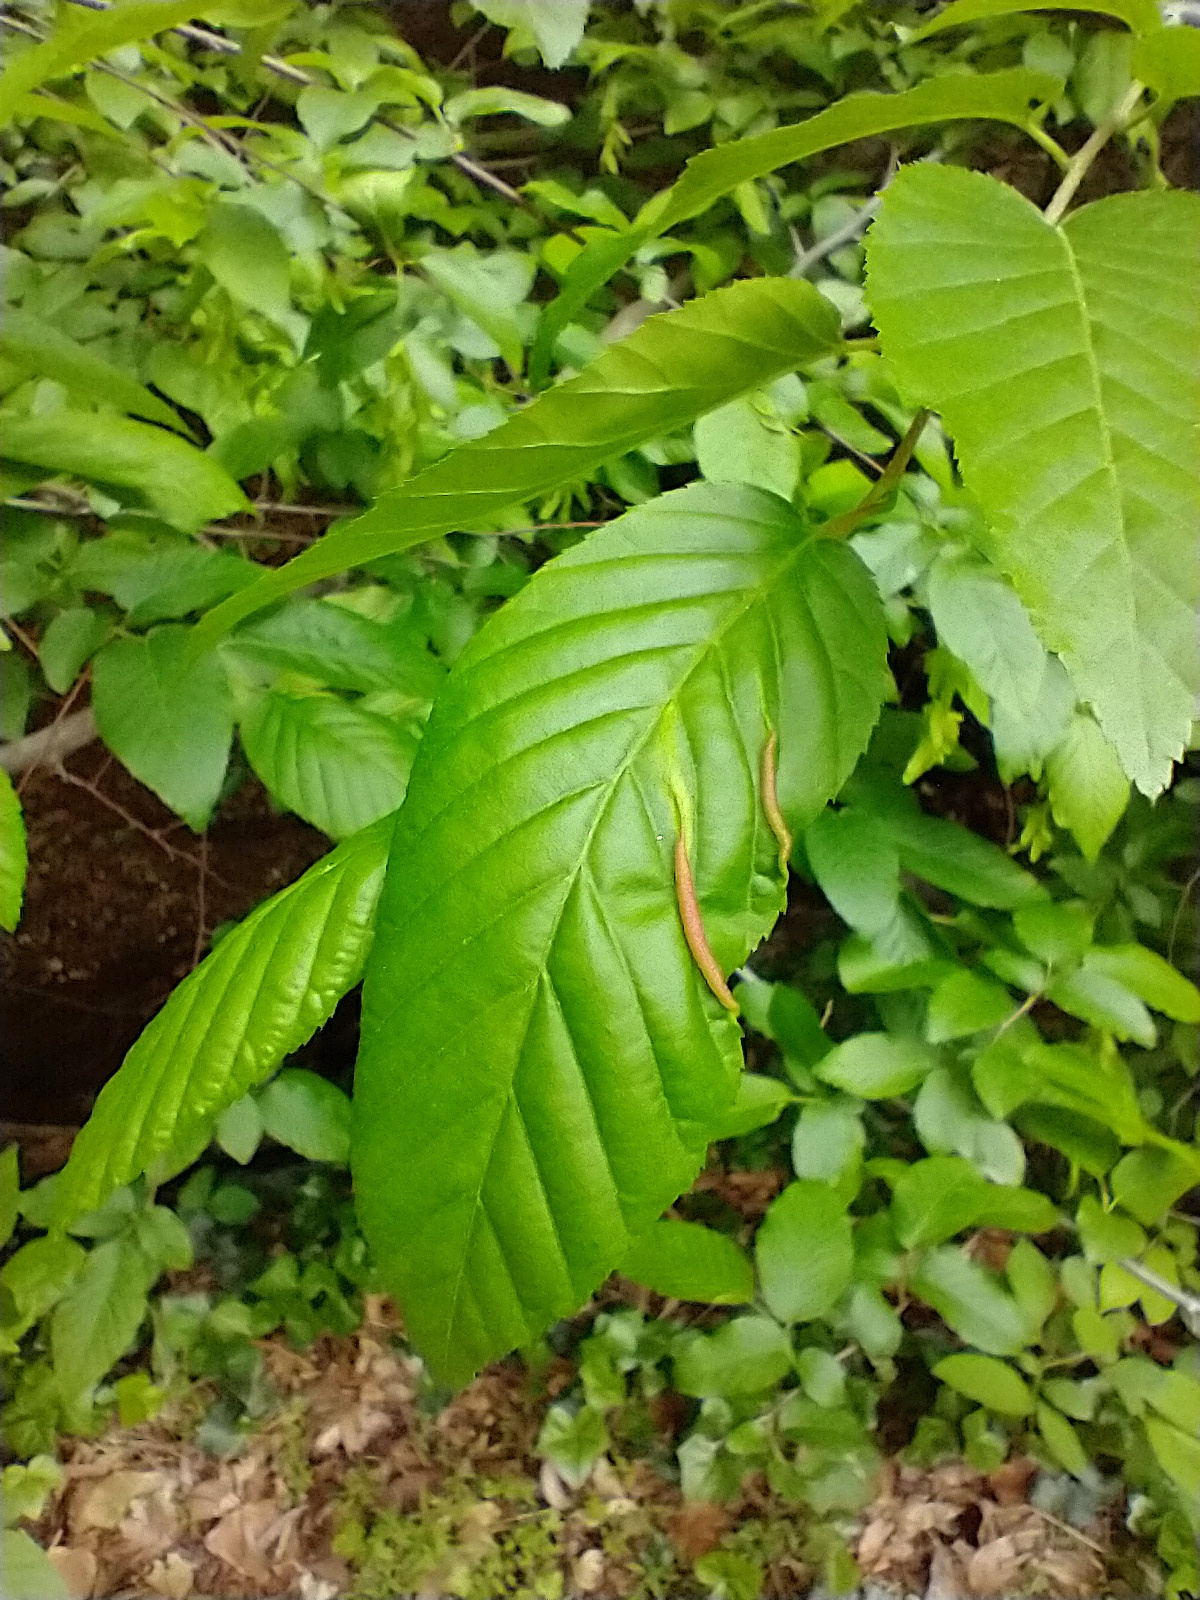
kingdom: Animalia
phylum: Arthropoda
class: Insecta
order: Diptera
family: Cecidomyiidae
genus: Dasineura
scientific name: Dasineura pudibunda
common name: Hornbeam leaf gall midge
